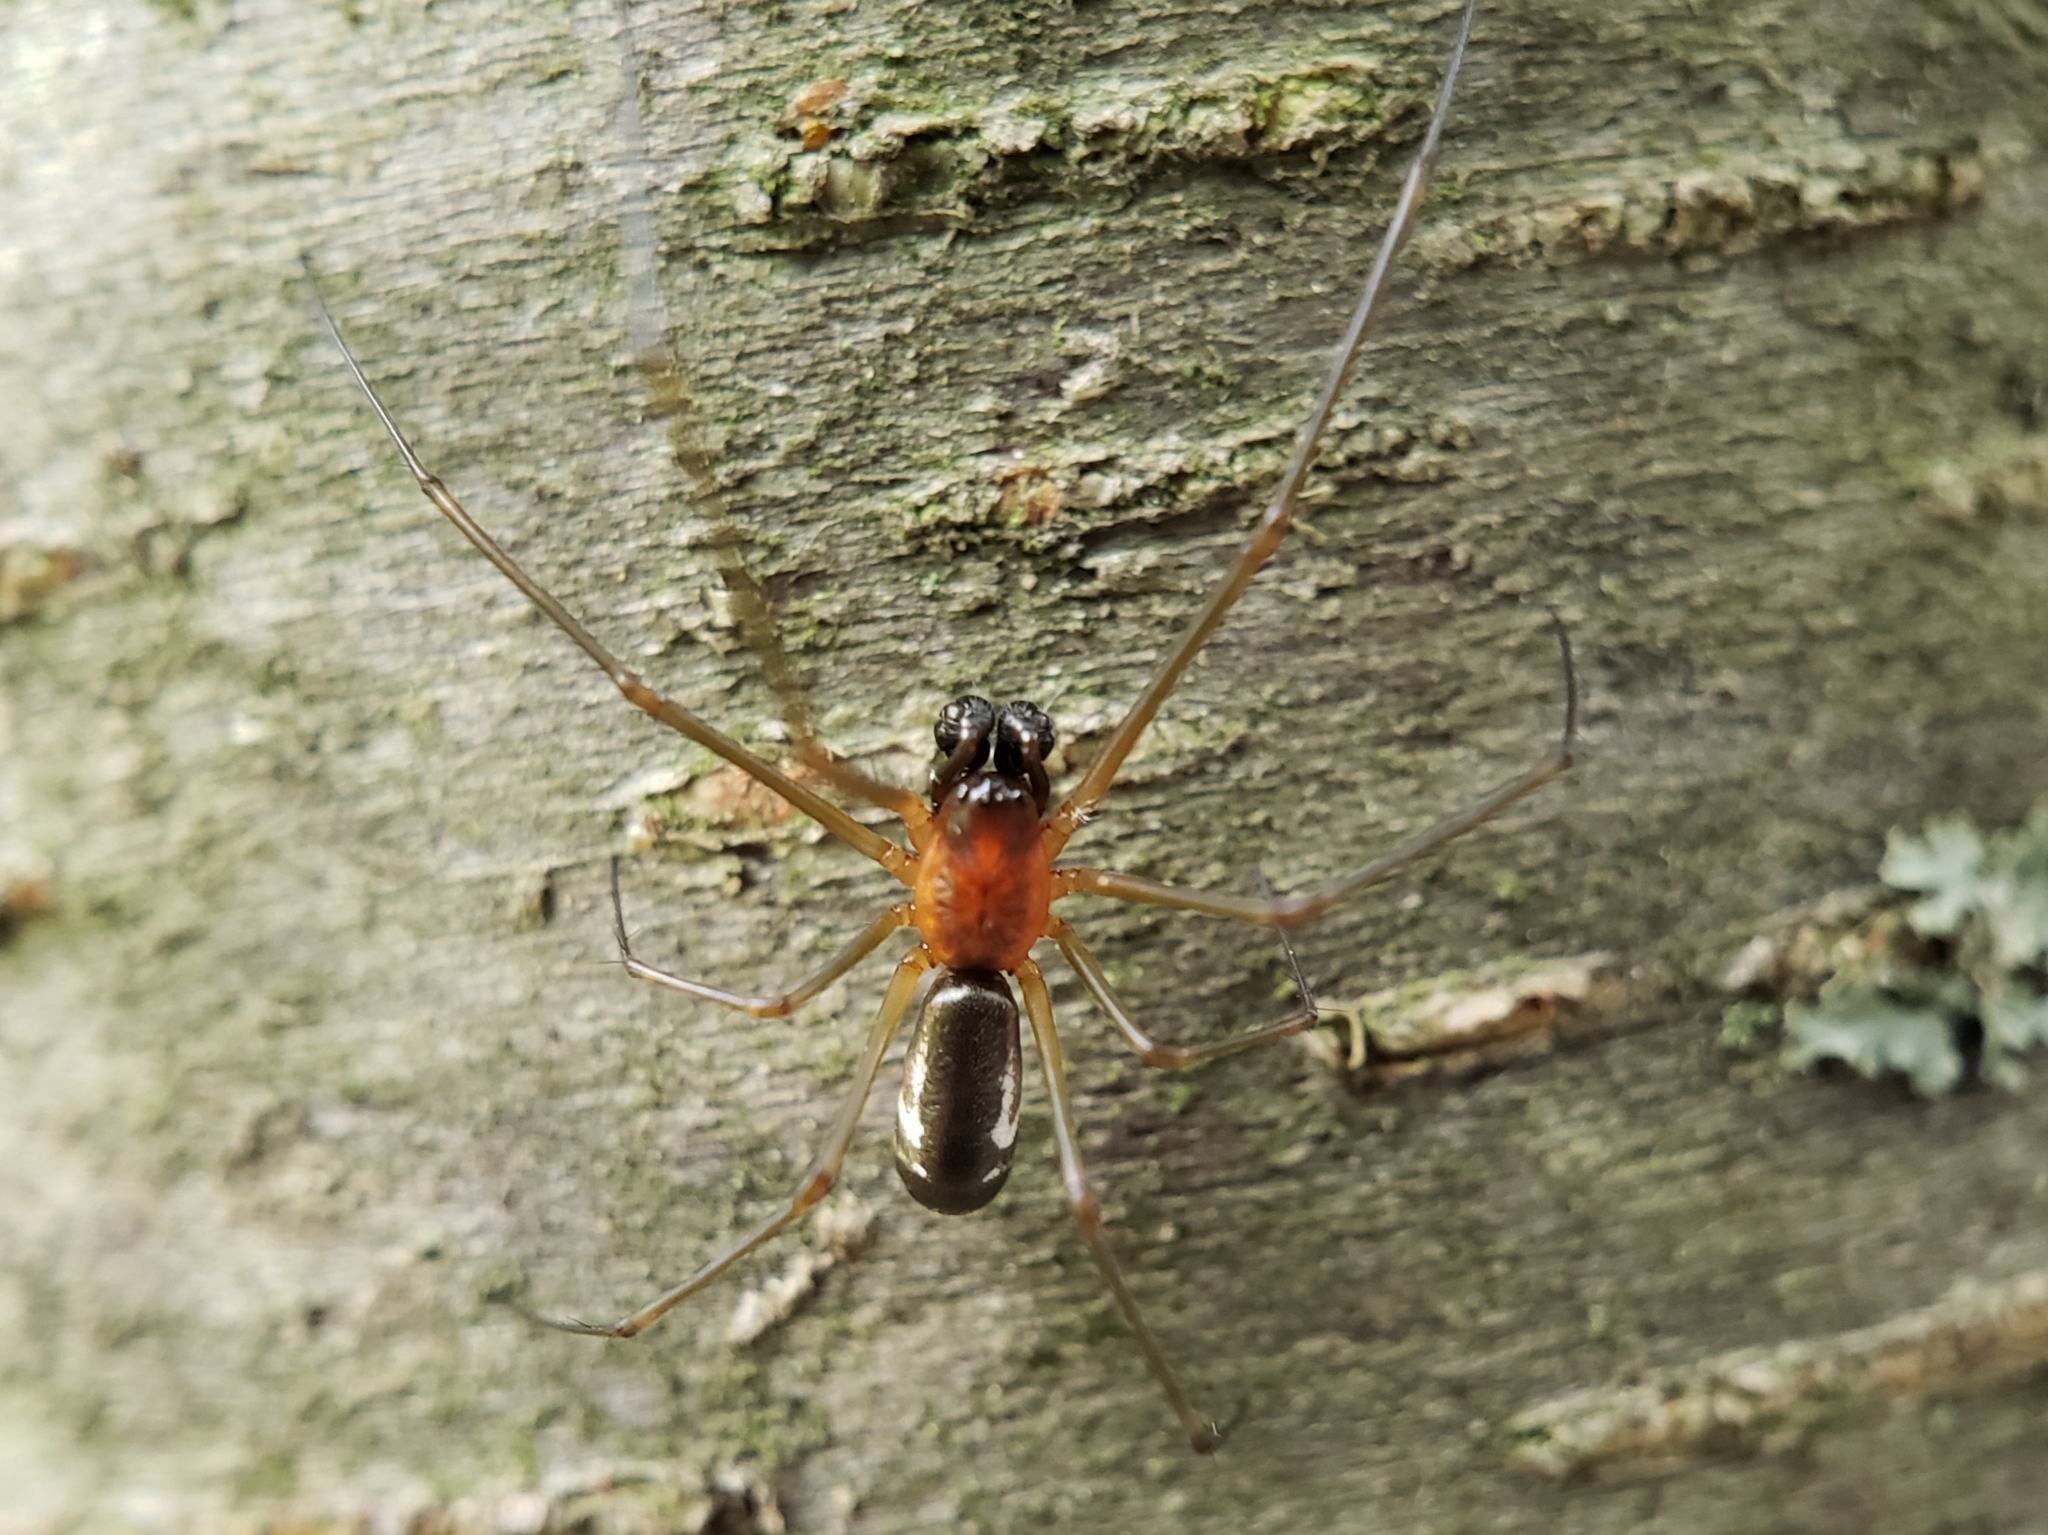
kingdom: Animalia
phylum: Arthropoda
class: Arachnida
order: Araneae
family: Linyphiidae
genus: Neriene
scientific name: Neriene radiata
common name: Filmy dome spider
